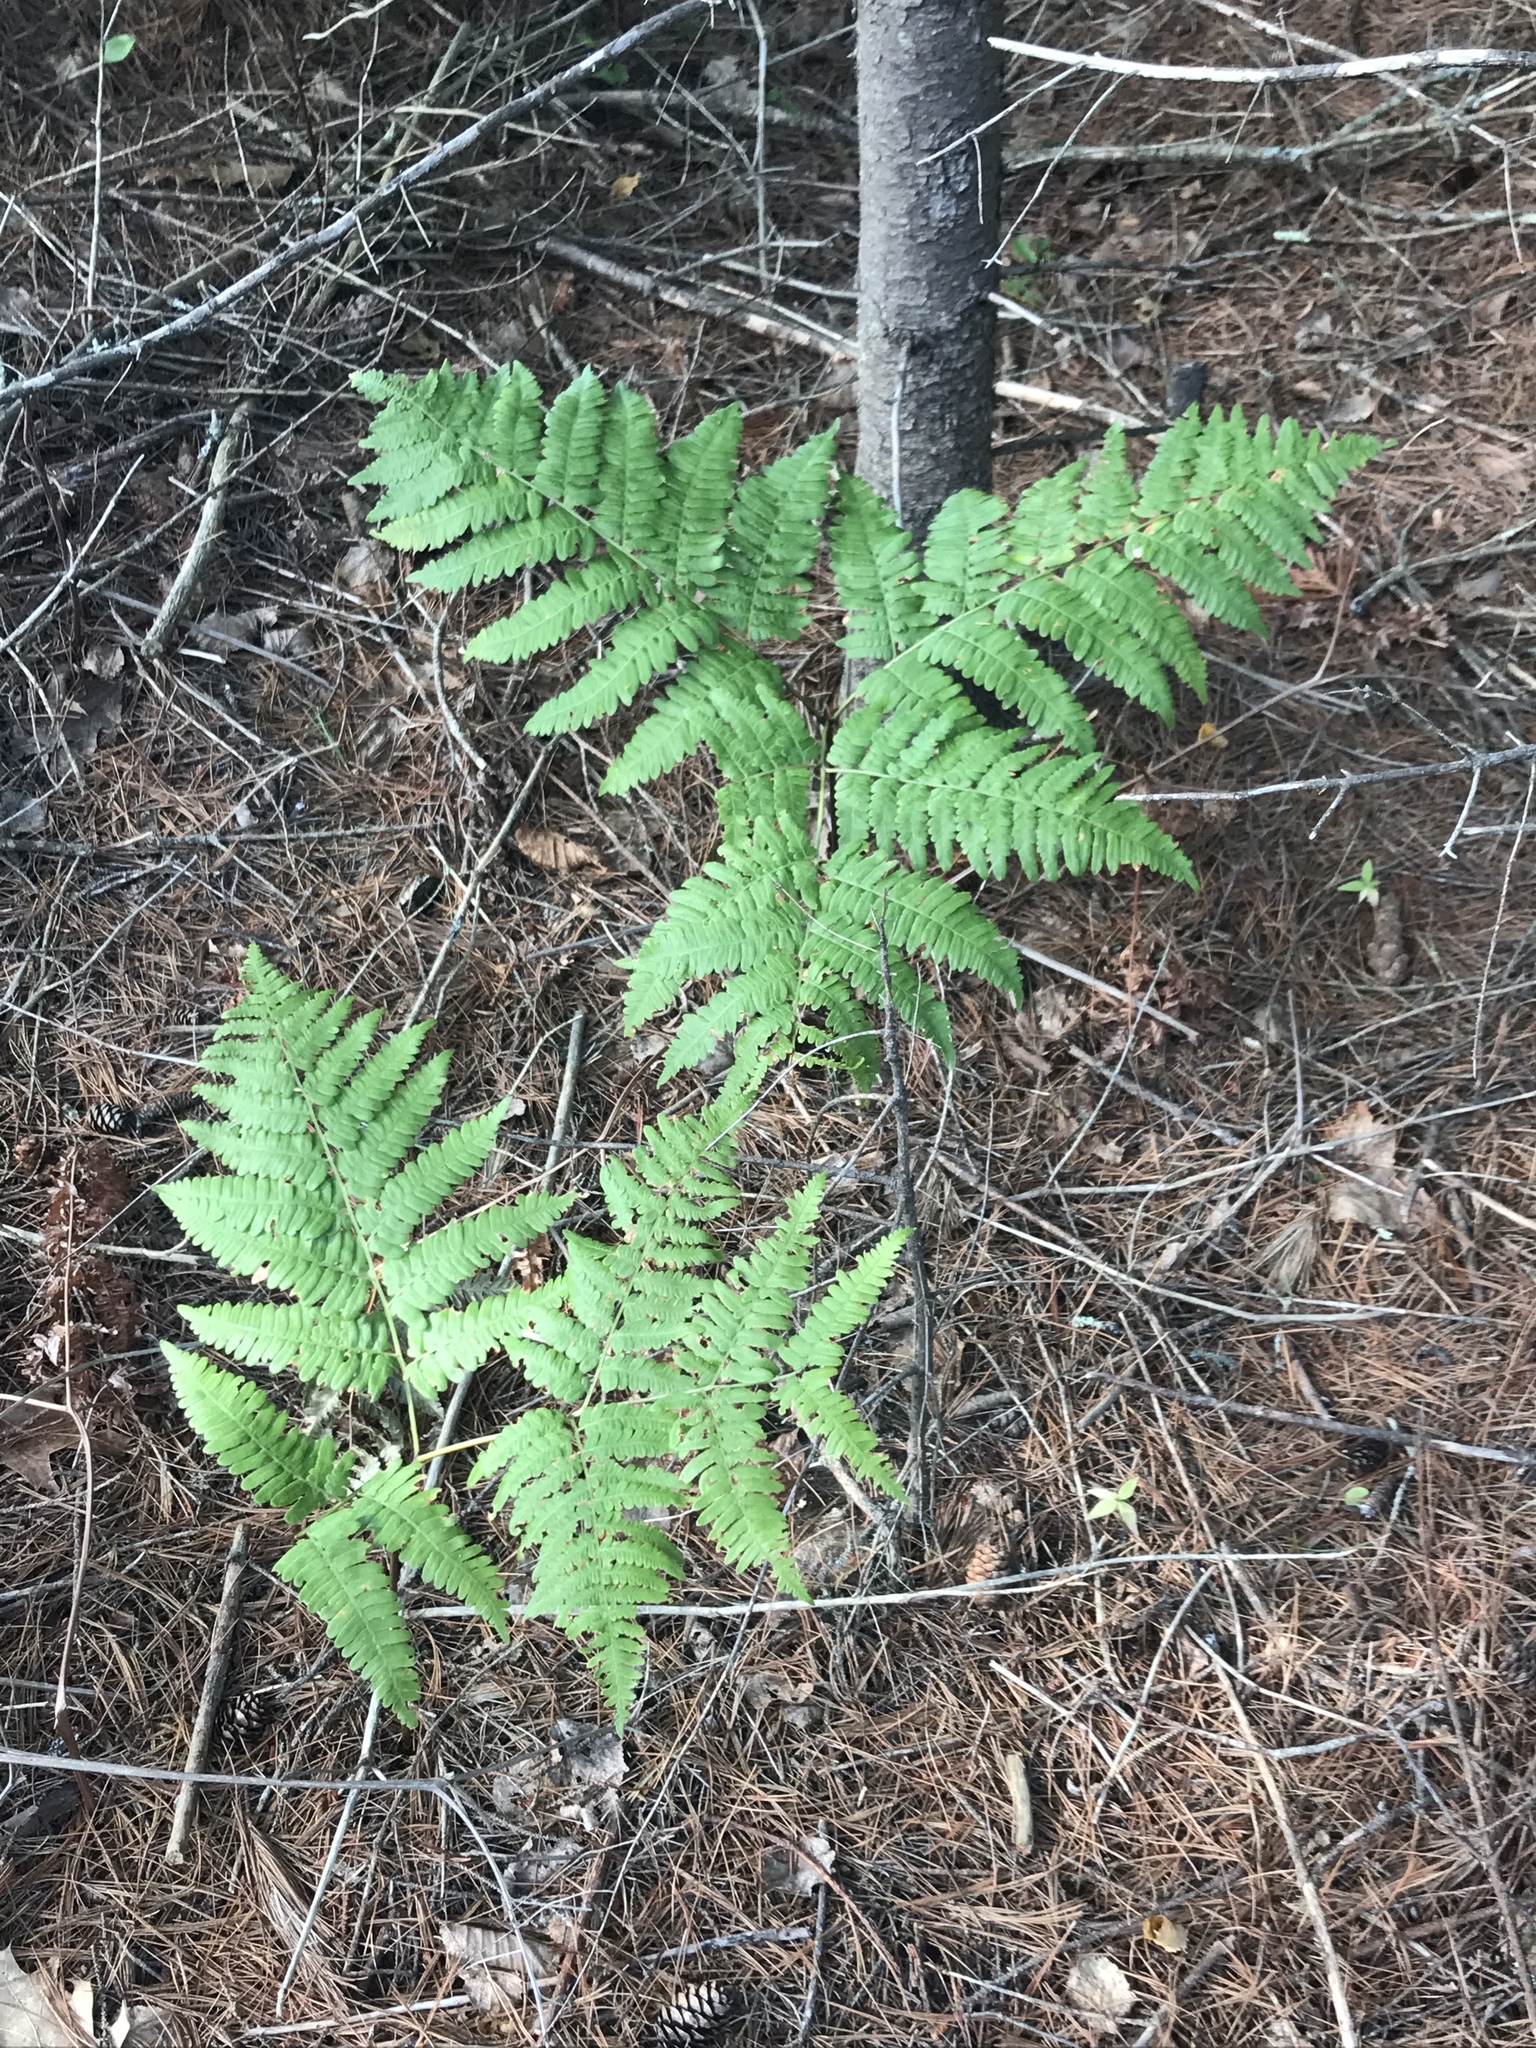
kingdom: Plantae
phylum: Tracheophyta
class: Polypodiopsida
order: Polypodiales
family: Dennstaedtiaceae
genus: Pteridium
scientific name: Pteridium aquilinum
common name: Bracken
